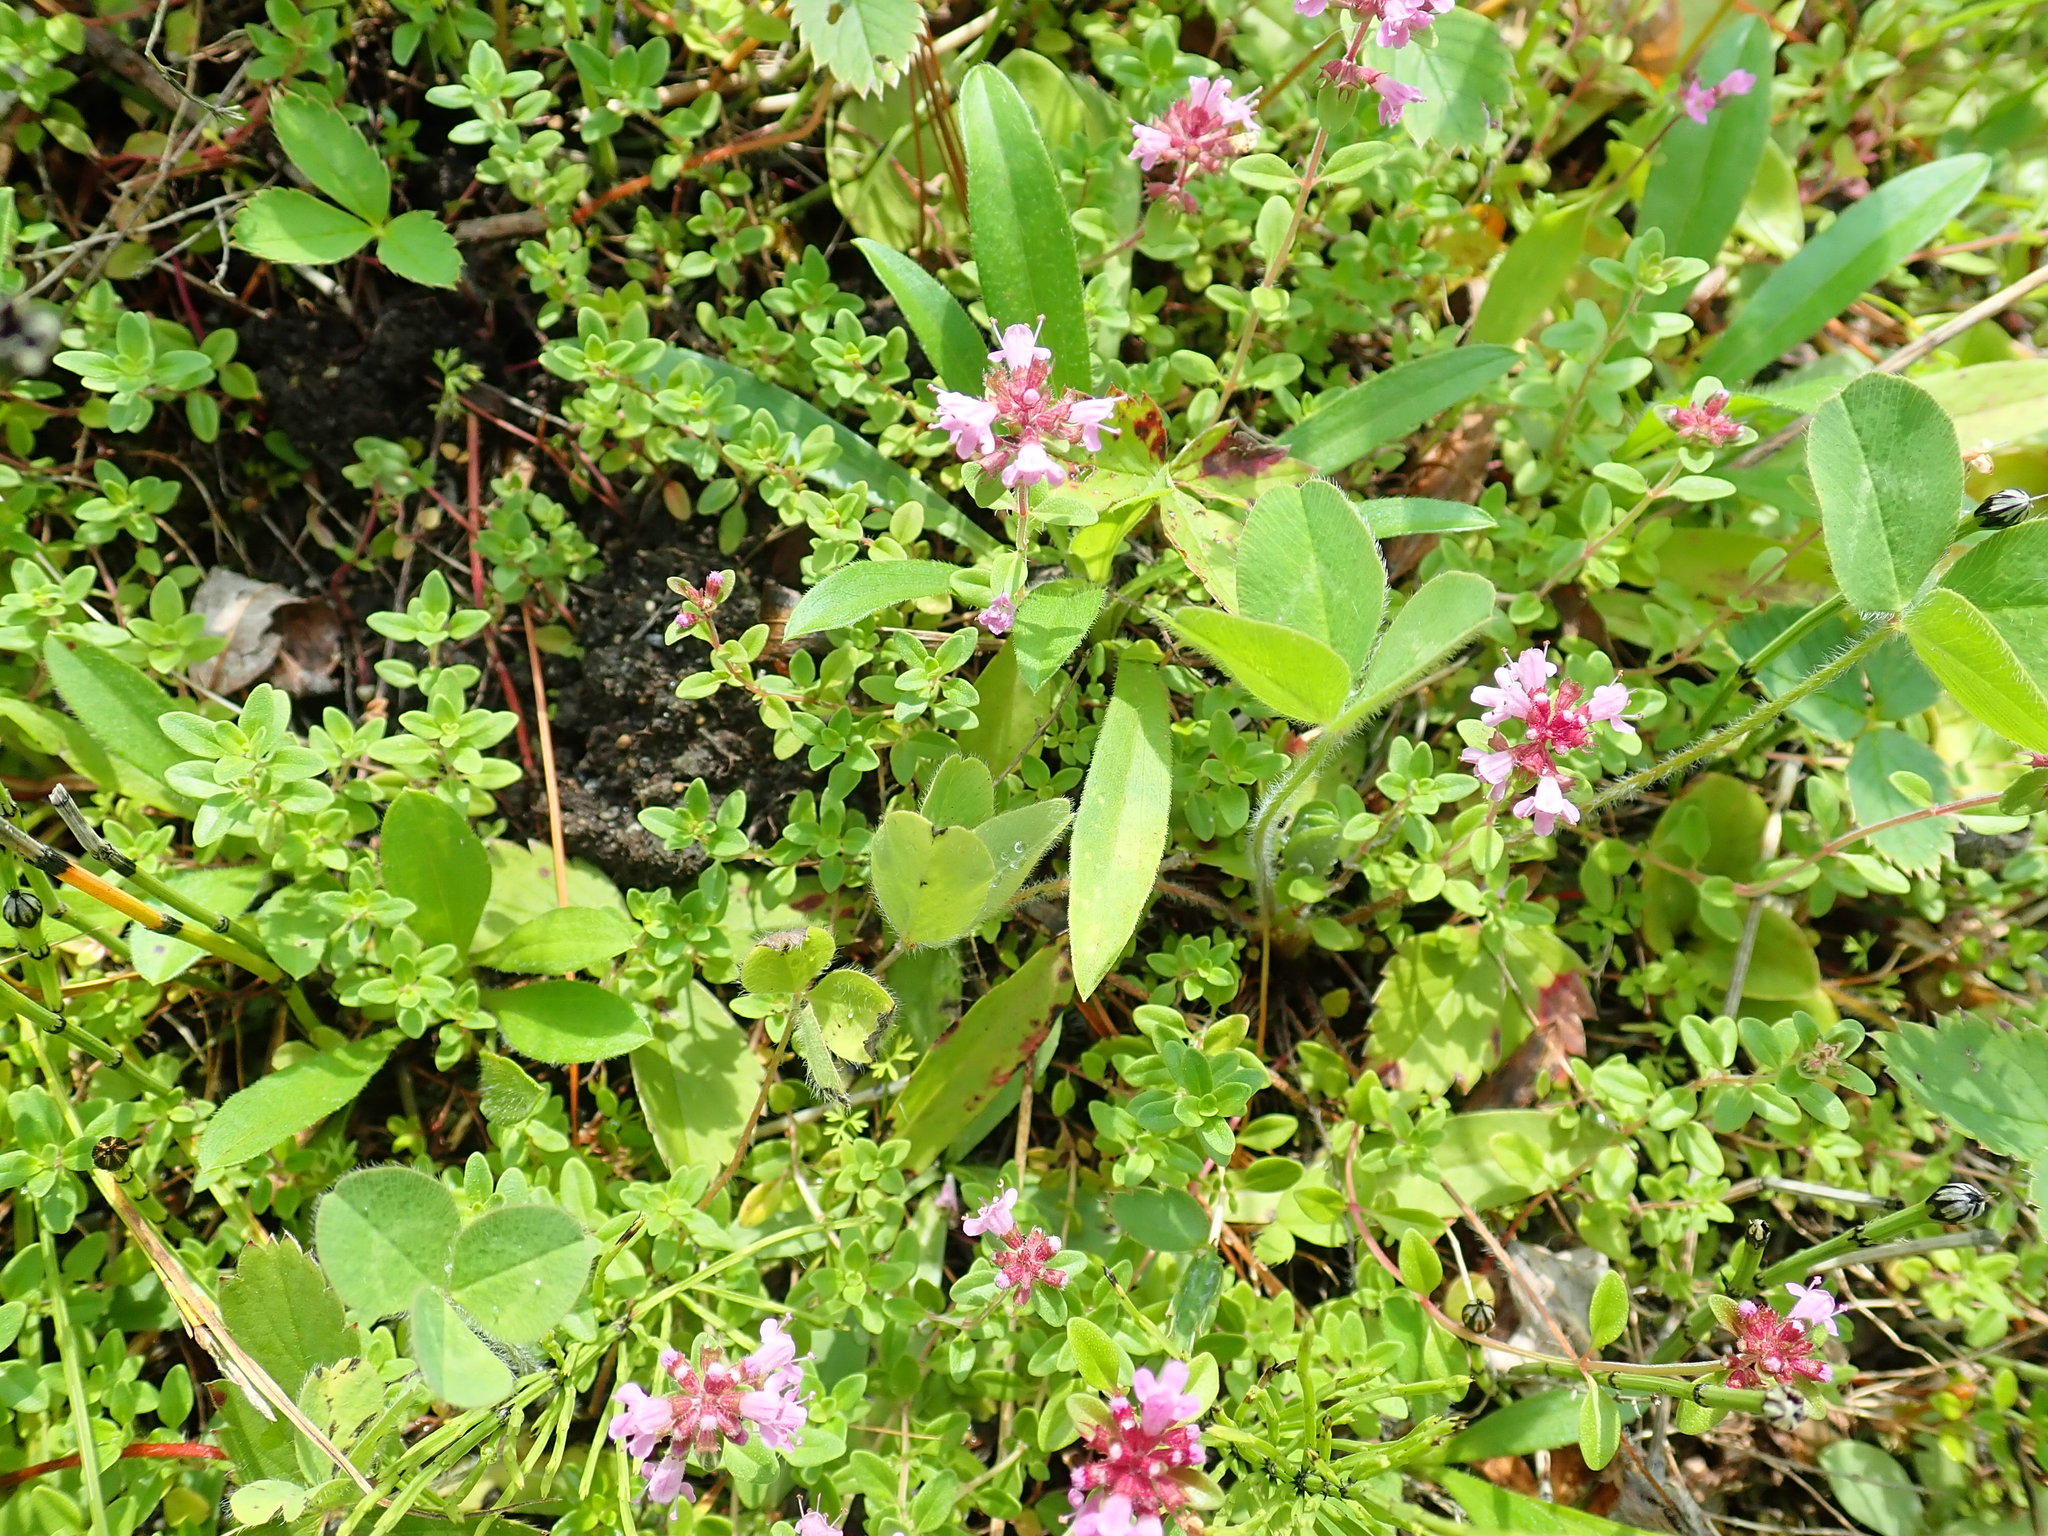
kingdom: Plantae
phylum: Tracheophyta
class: Magnoliopsida
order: Lamiales
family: Lamiaceae
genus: Thymus
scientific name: Thymus pulegioides
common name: Large thyme
